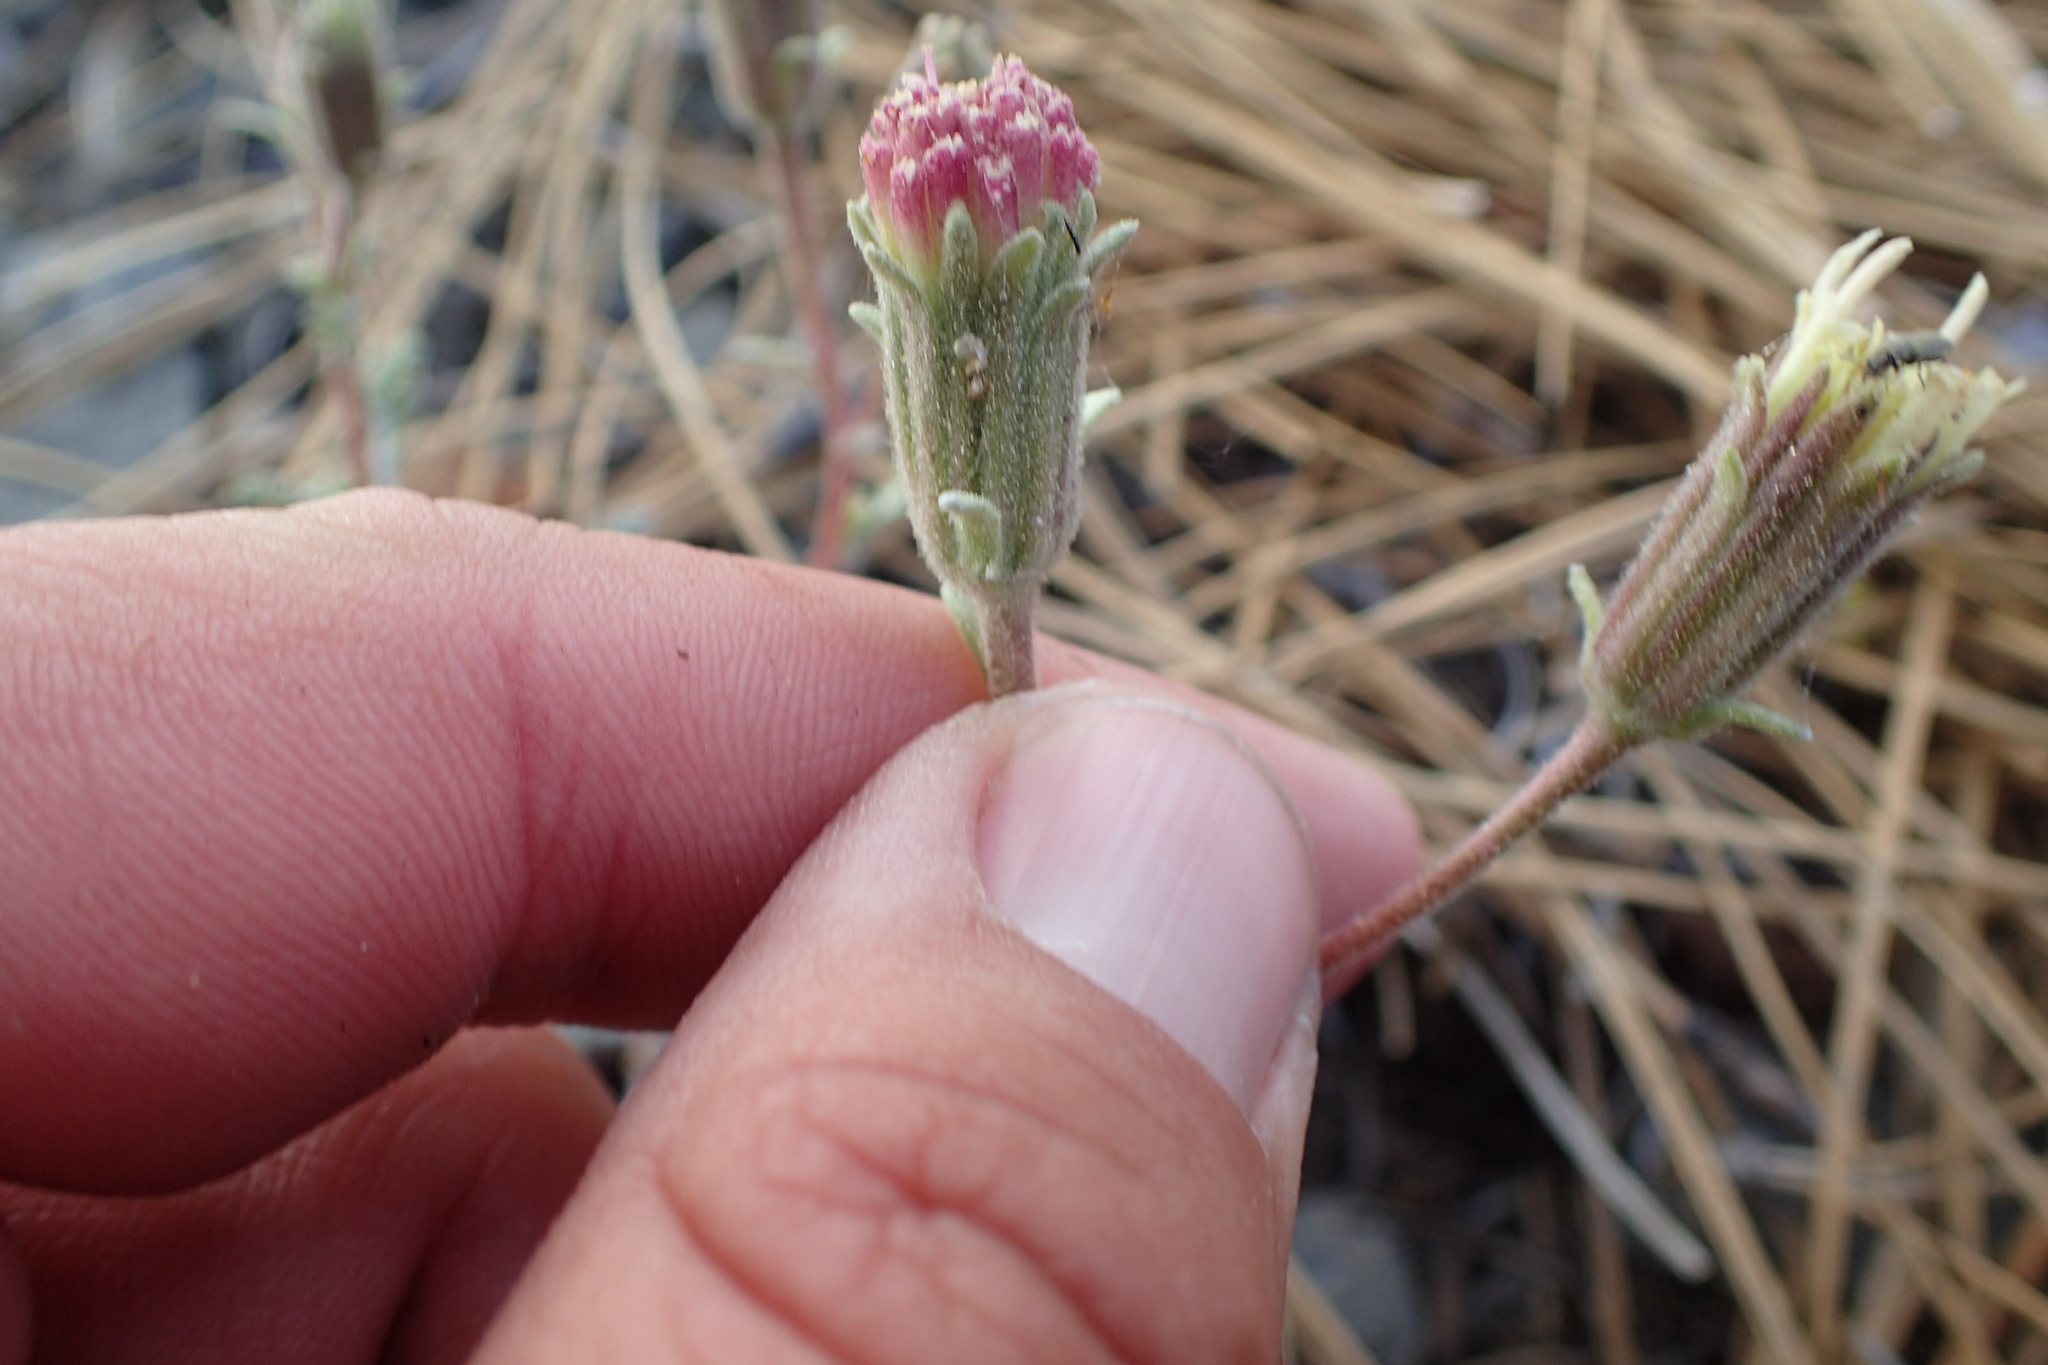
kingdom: Plantae
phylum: Tracheophyta
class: Magnoliopsida
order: Asterales
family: Asteraceae
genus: Chaenactis
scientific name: Chaenactis douglasii
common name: Hoary pincushion
